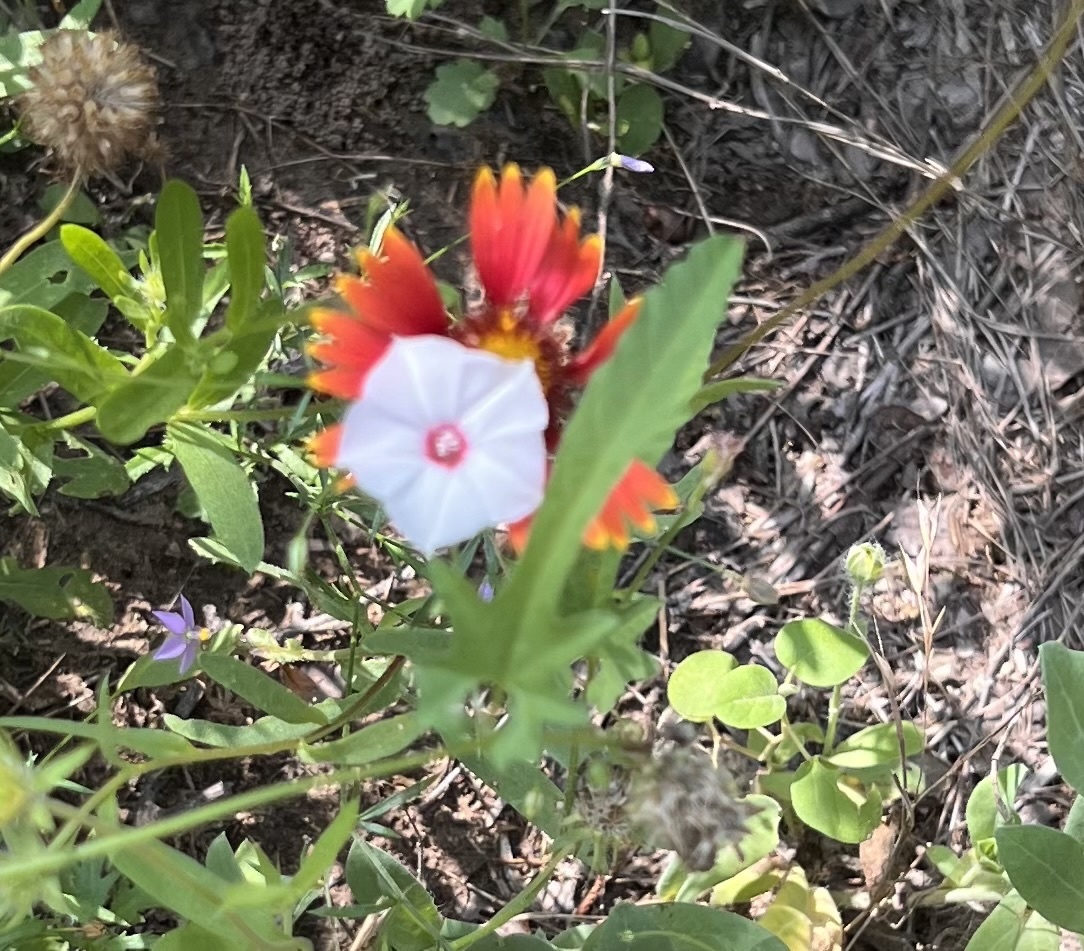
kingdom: Plantae
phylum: Tracheophyta
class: Magnoliopsida
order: Solanales
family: Convolvulaceae
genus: Convolvulus
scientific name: Convolvulus equitans
